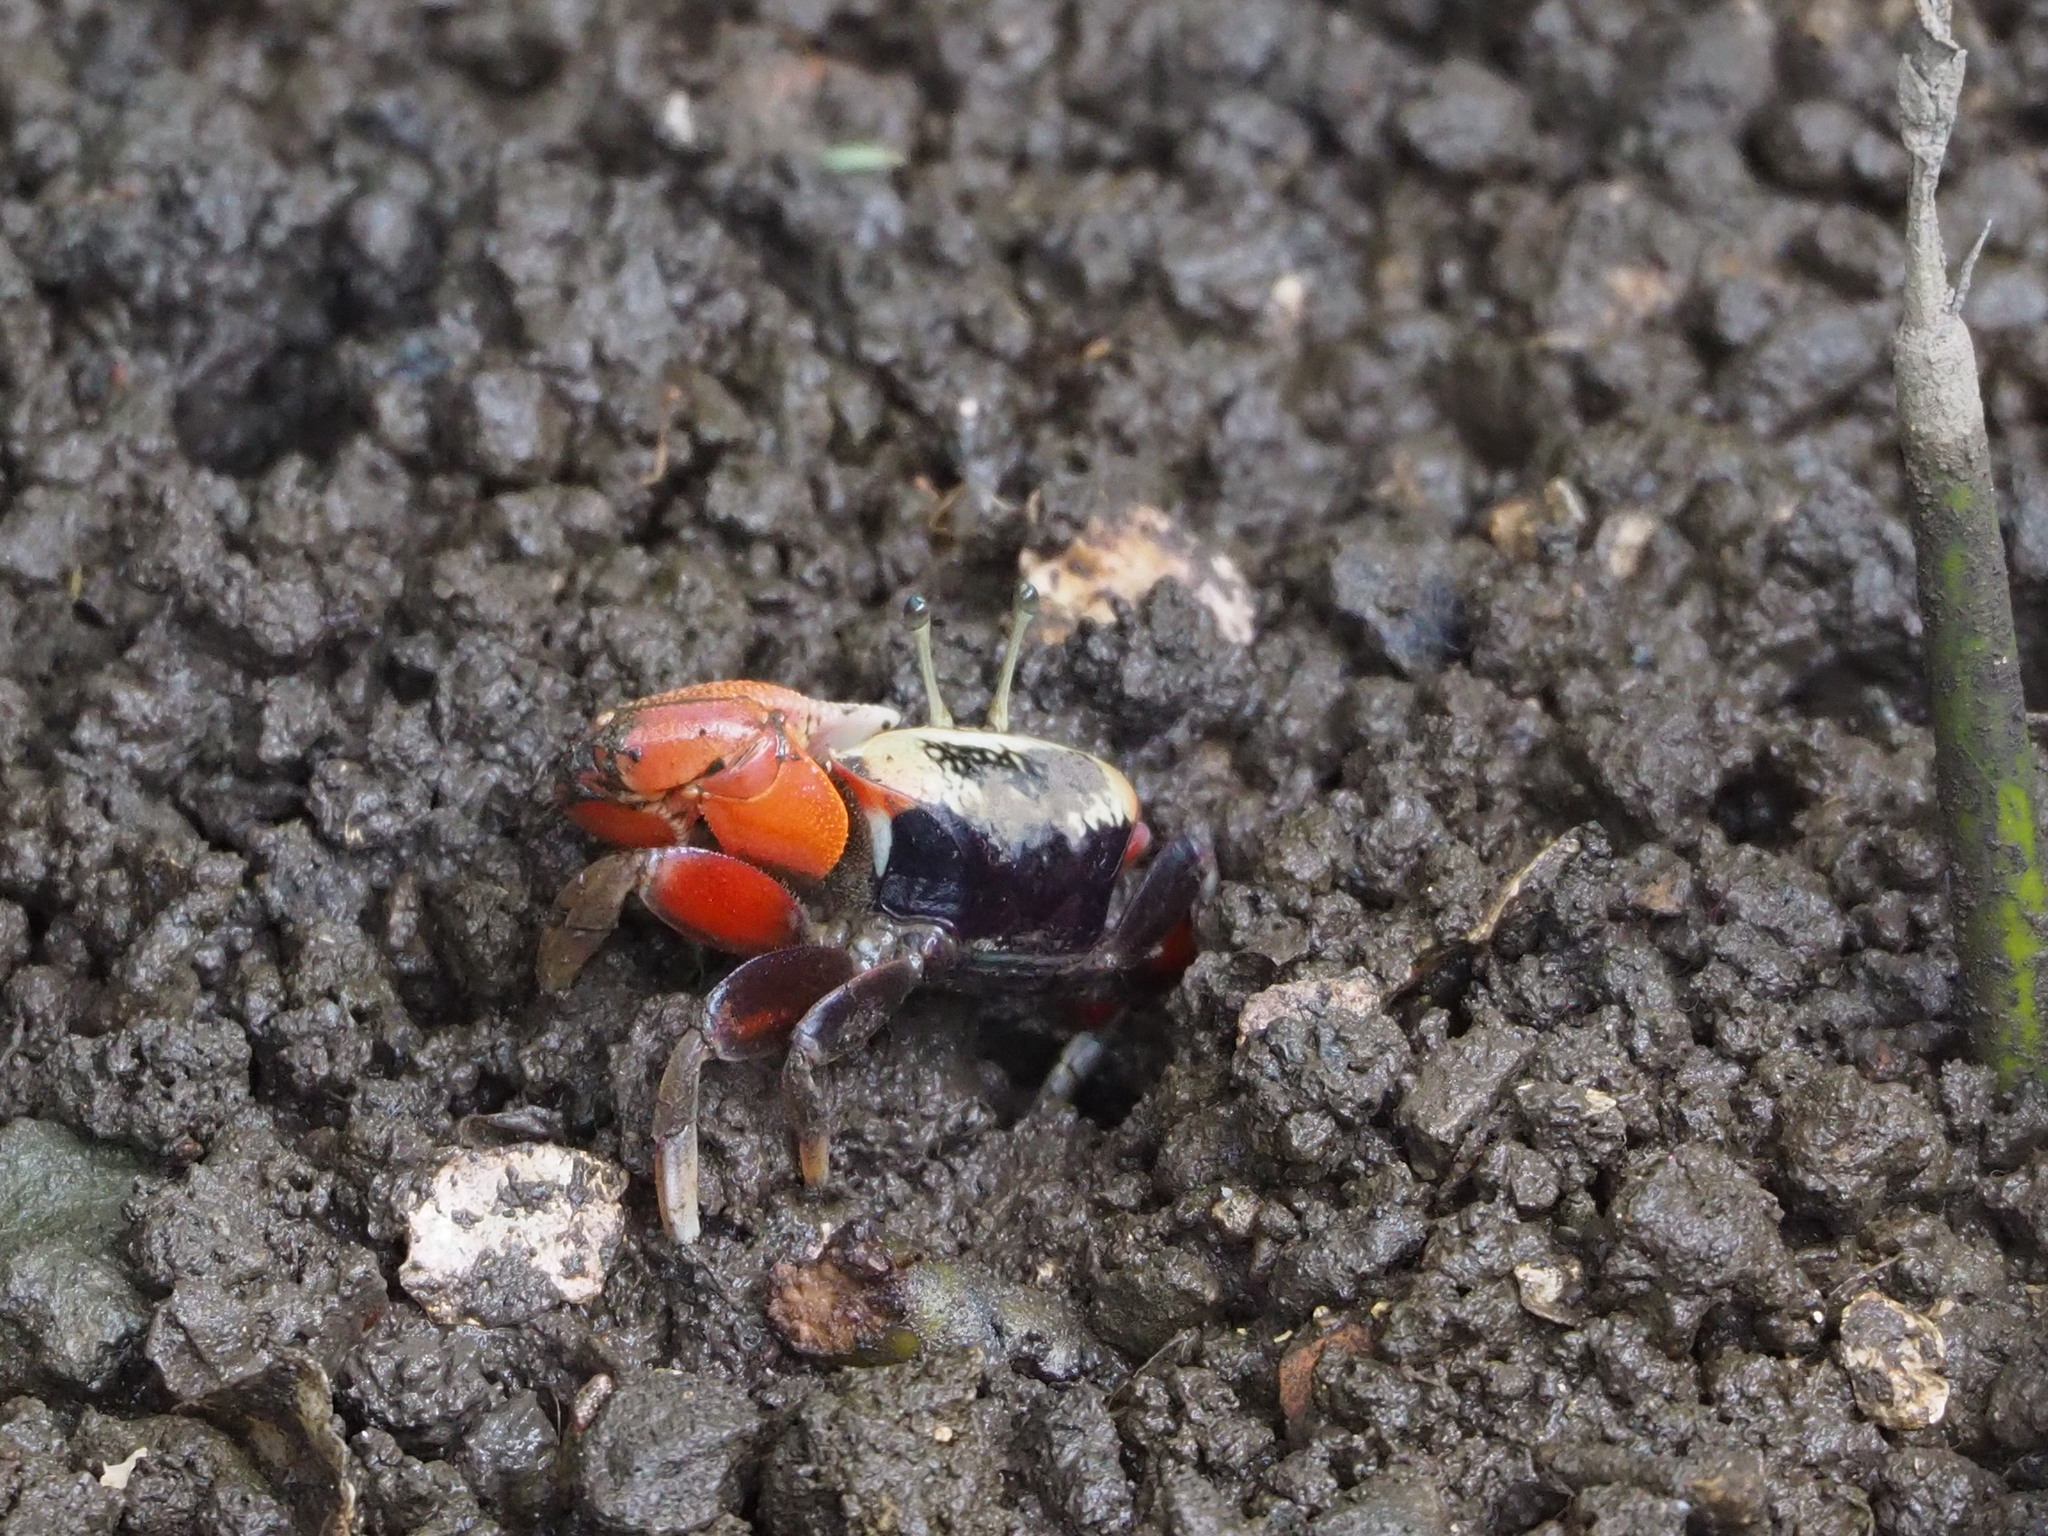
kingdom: Animalia
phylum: Arthropoda
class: Malacostraca
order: Decapoda
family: Ocypodidae
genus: Tubuca
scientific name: Tubuca arcuata
